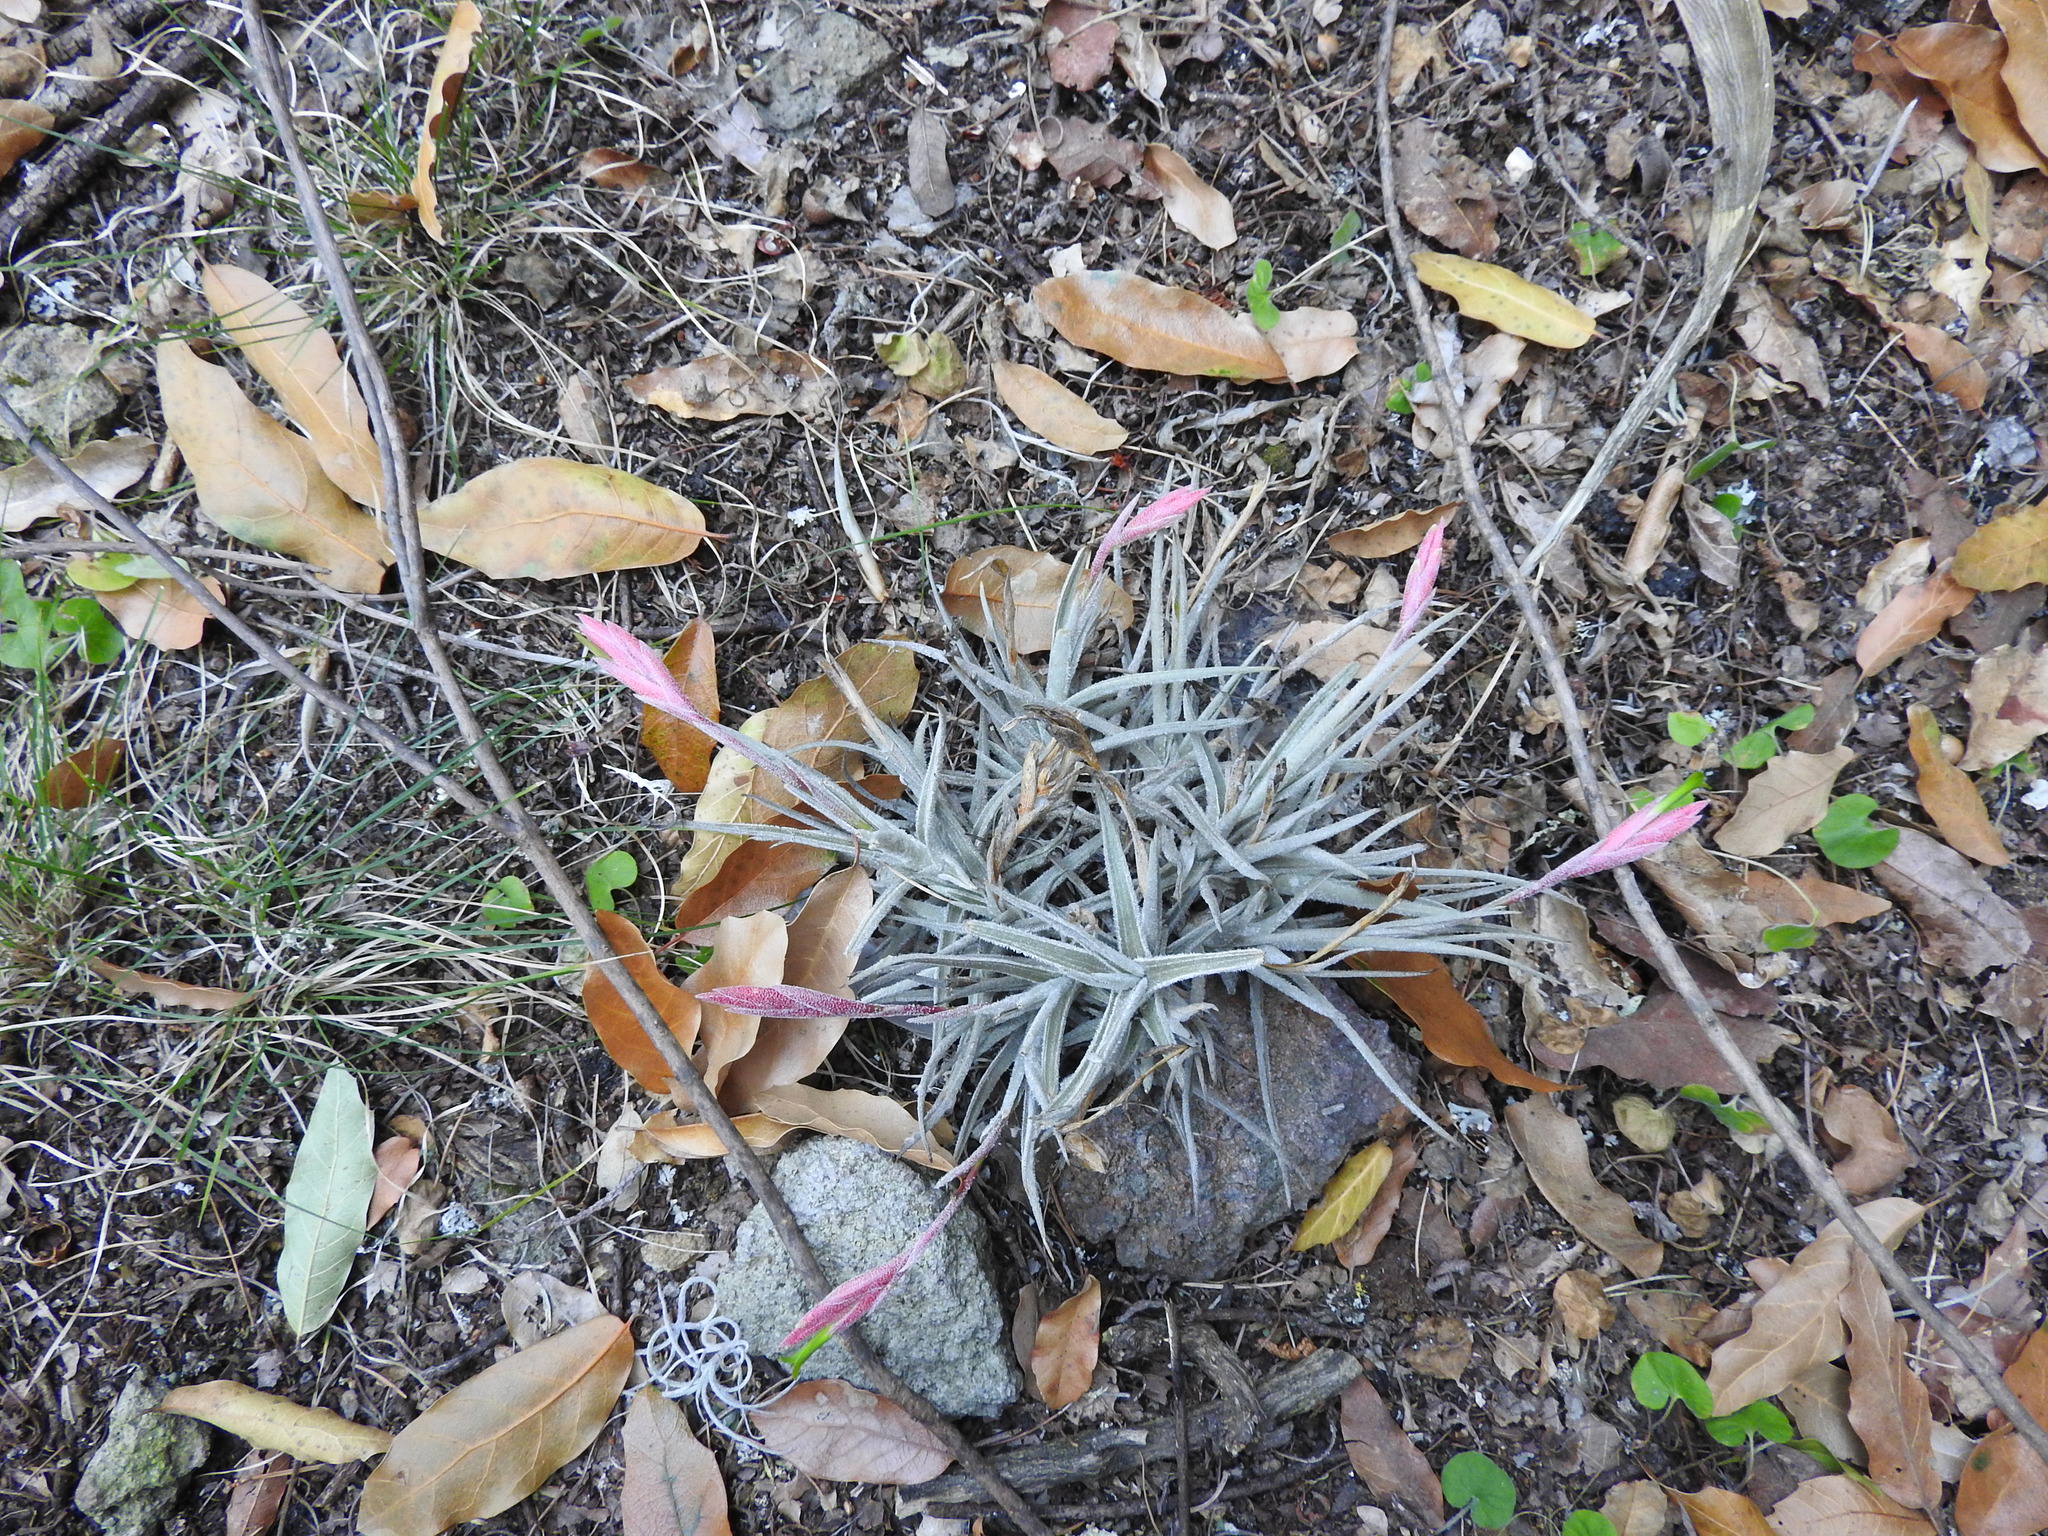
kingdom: Plantae
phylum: Tracheophyta
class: Liliopsida
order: Poales
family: Bromeliaceae
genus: Tillandsia
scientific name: Tillandsia tortilis
